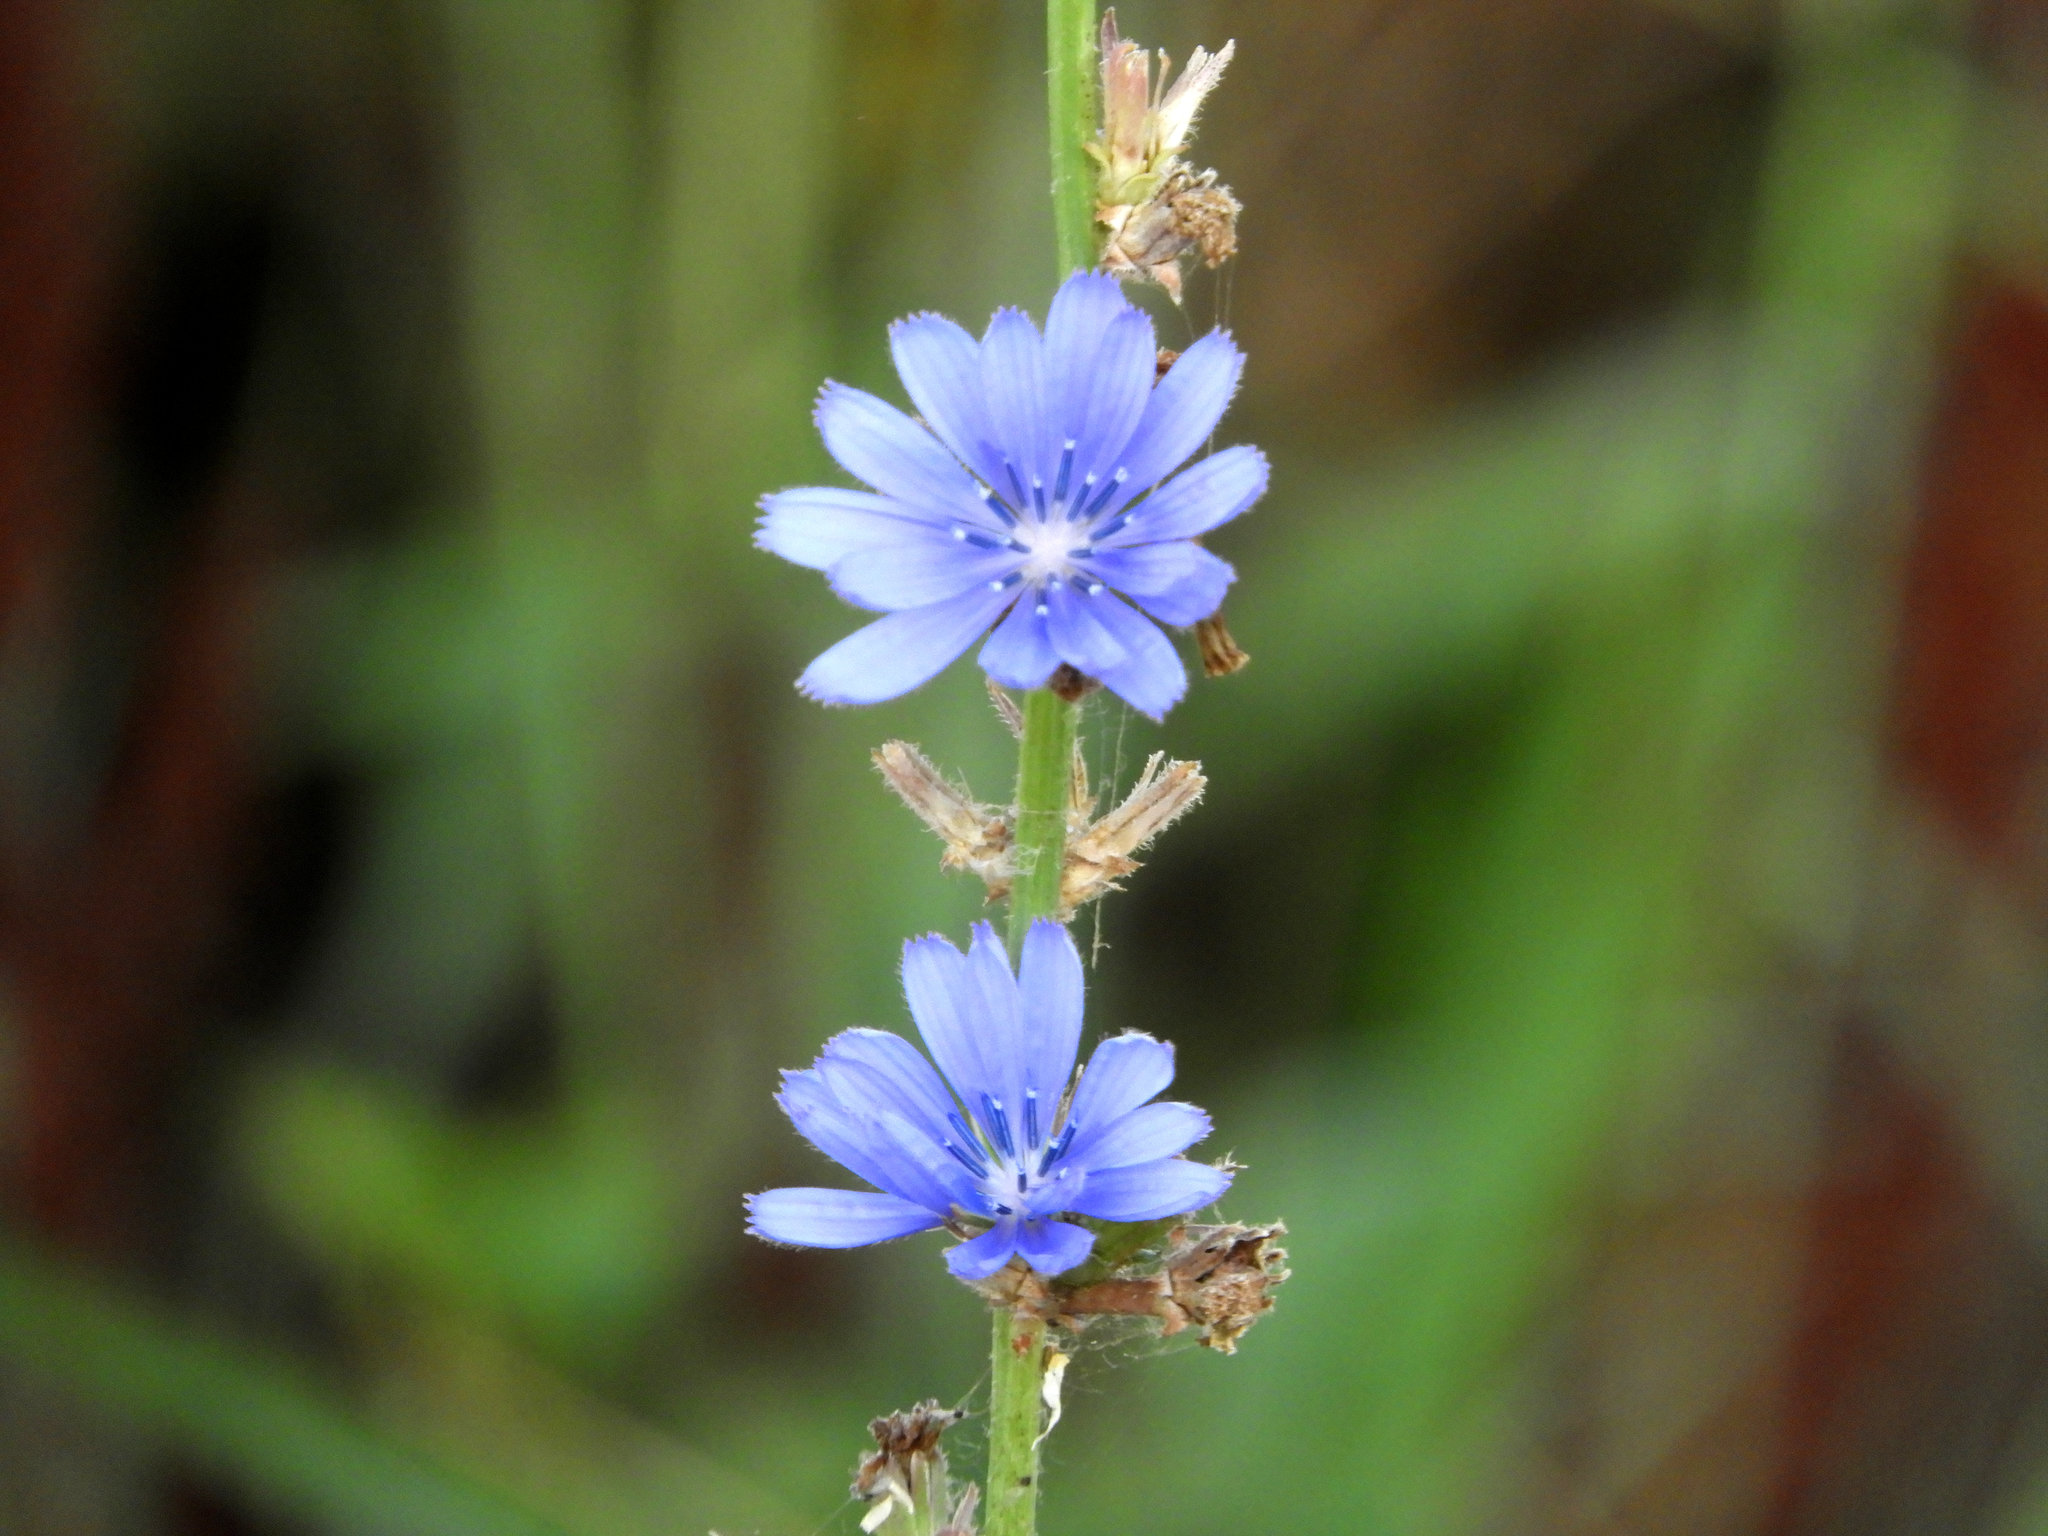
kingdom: Plantae
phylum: Tracheophyta
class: Magnoliopsida
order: Asterales
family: Asteraceae
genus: Cichorium
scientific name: Cichorium intybus
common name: Chicory
